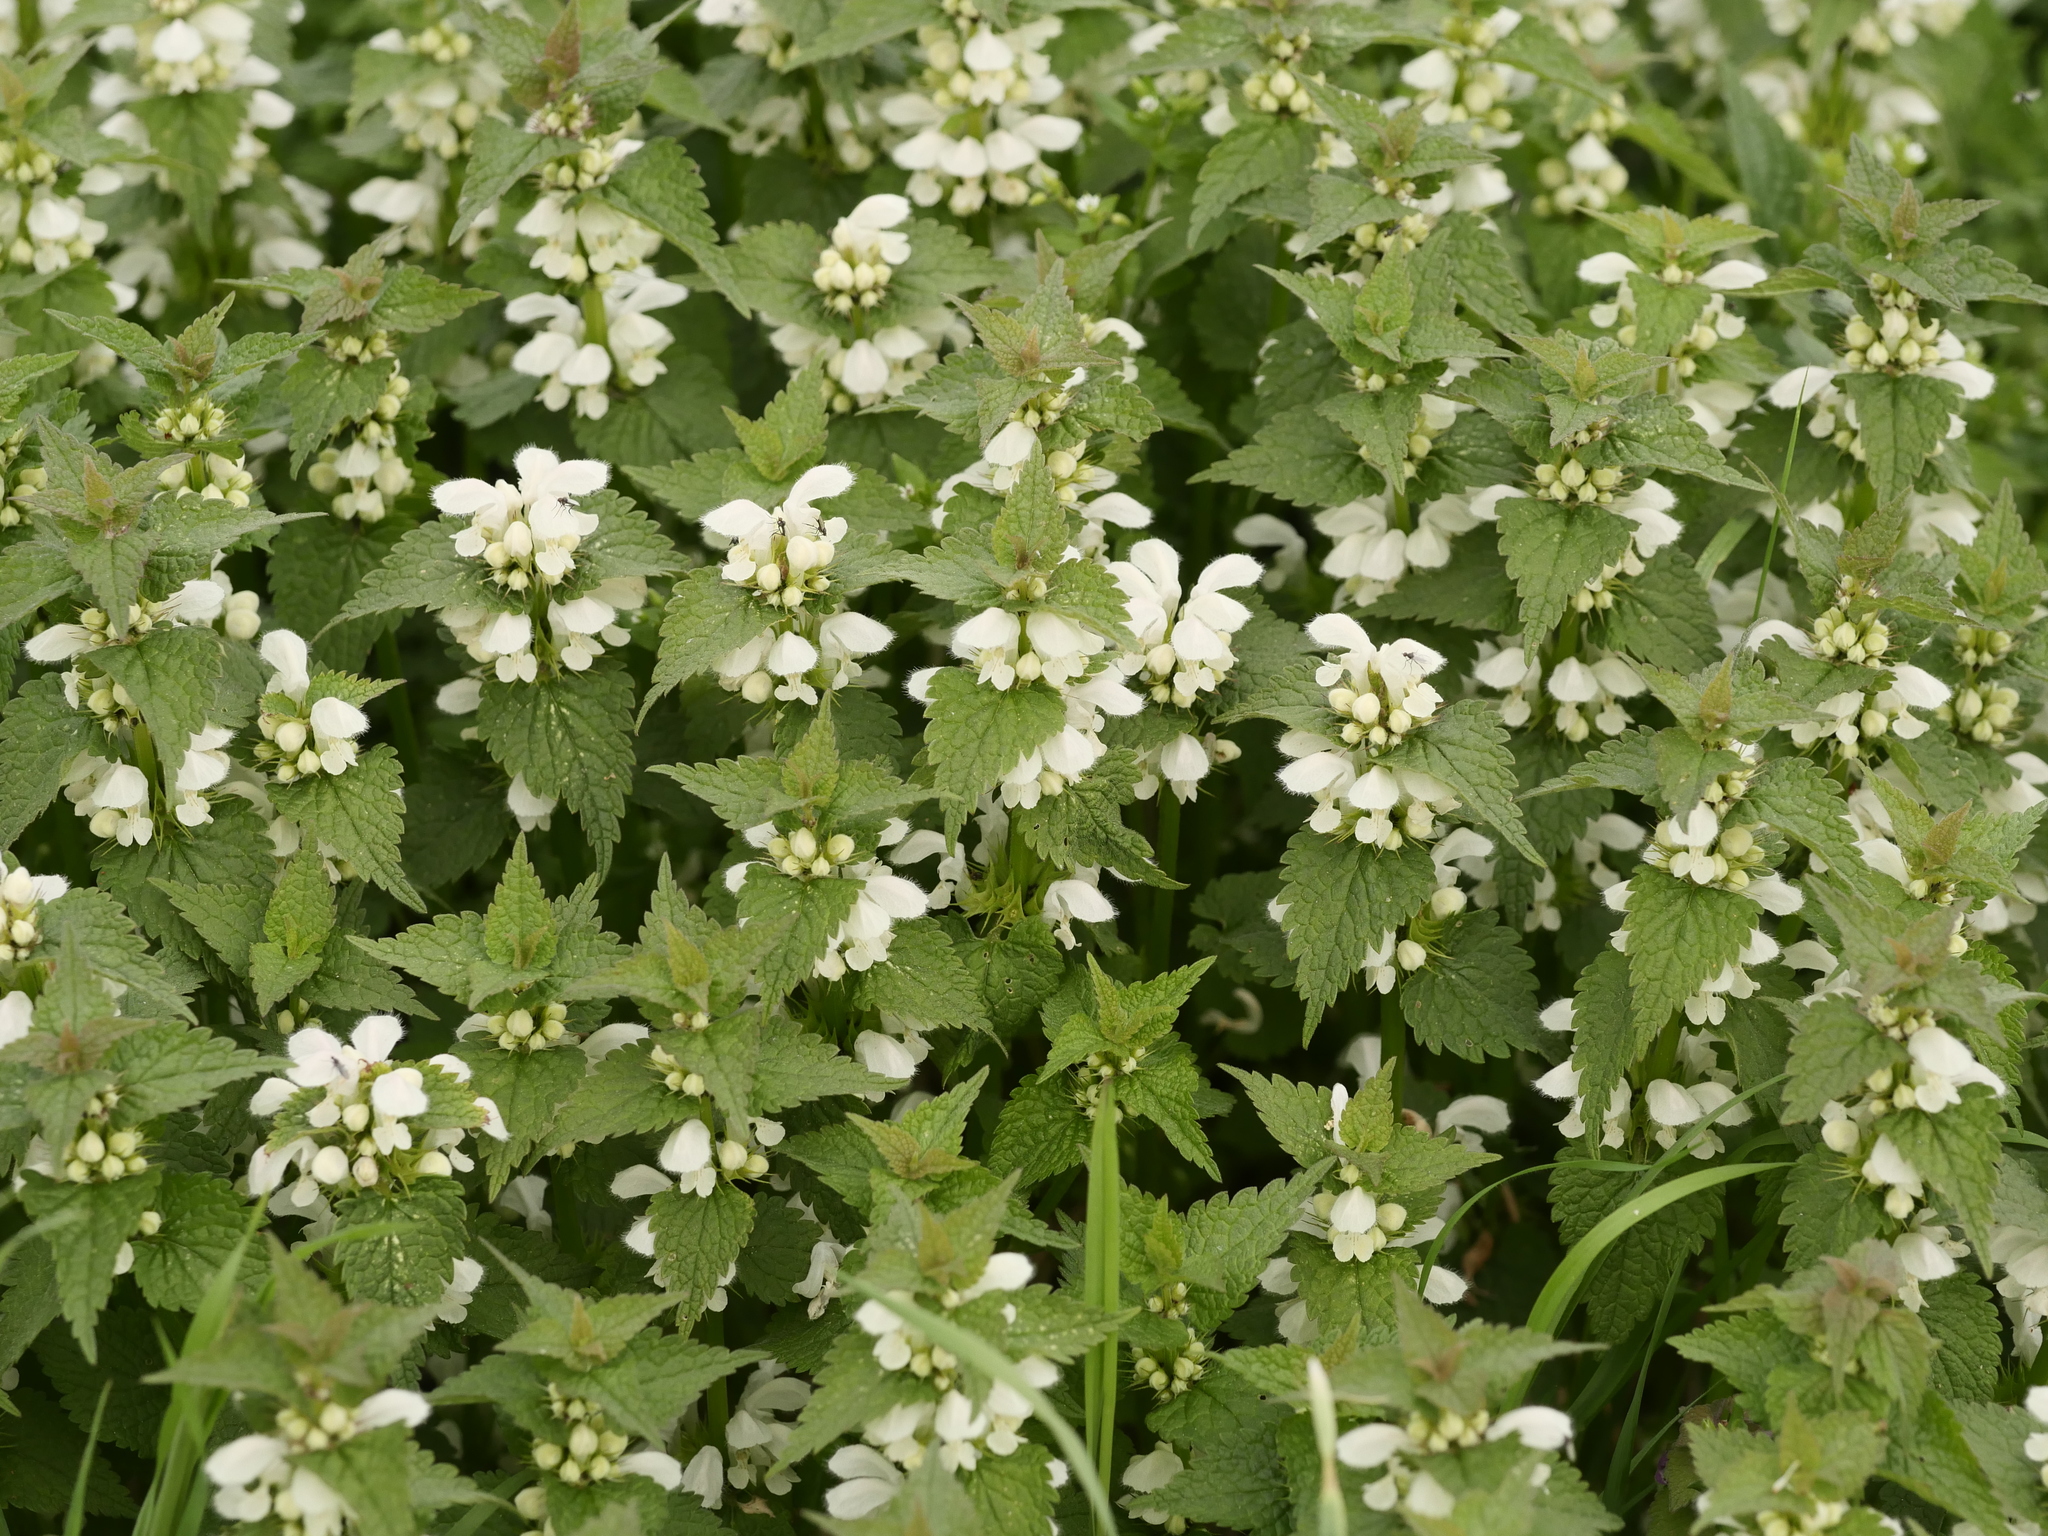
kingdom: Plantae
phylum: Tracheophyta
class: Magnoliopsida
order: Lamiales
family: Lamiaceae
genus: Lamium
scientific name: Lamium album
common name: White dead-nettle
